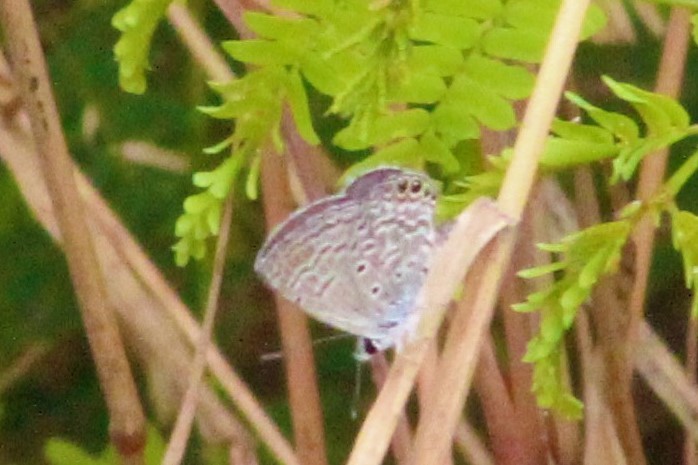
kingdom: Animalia
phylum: Arthropoda
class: Insecta
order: Lepidoptera
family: Lycaenidae
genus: Hemiargus
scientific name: Hemiargus ramon
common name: Ramon blue
